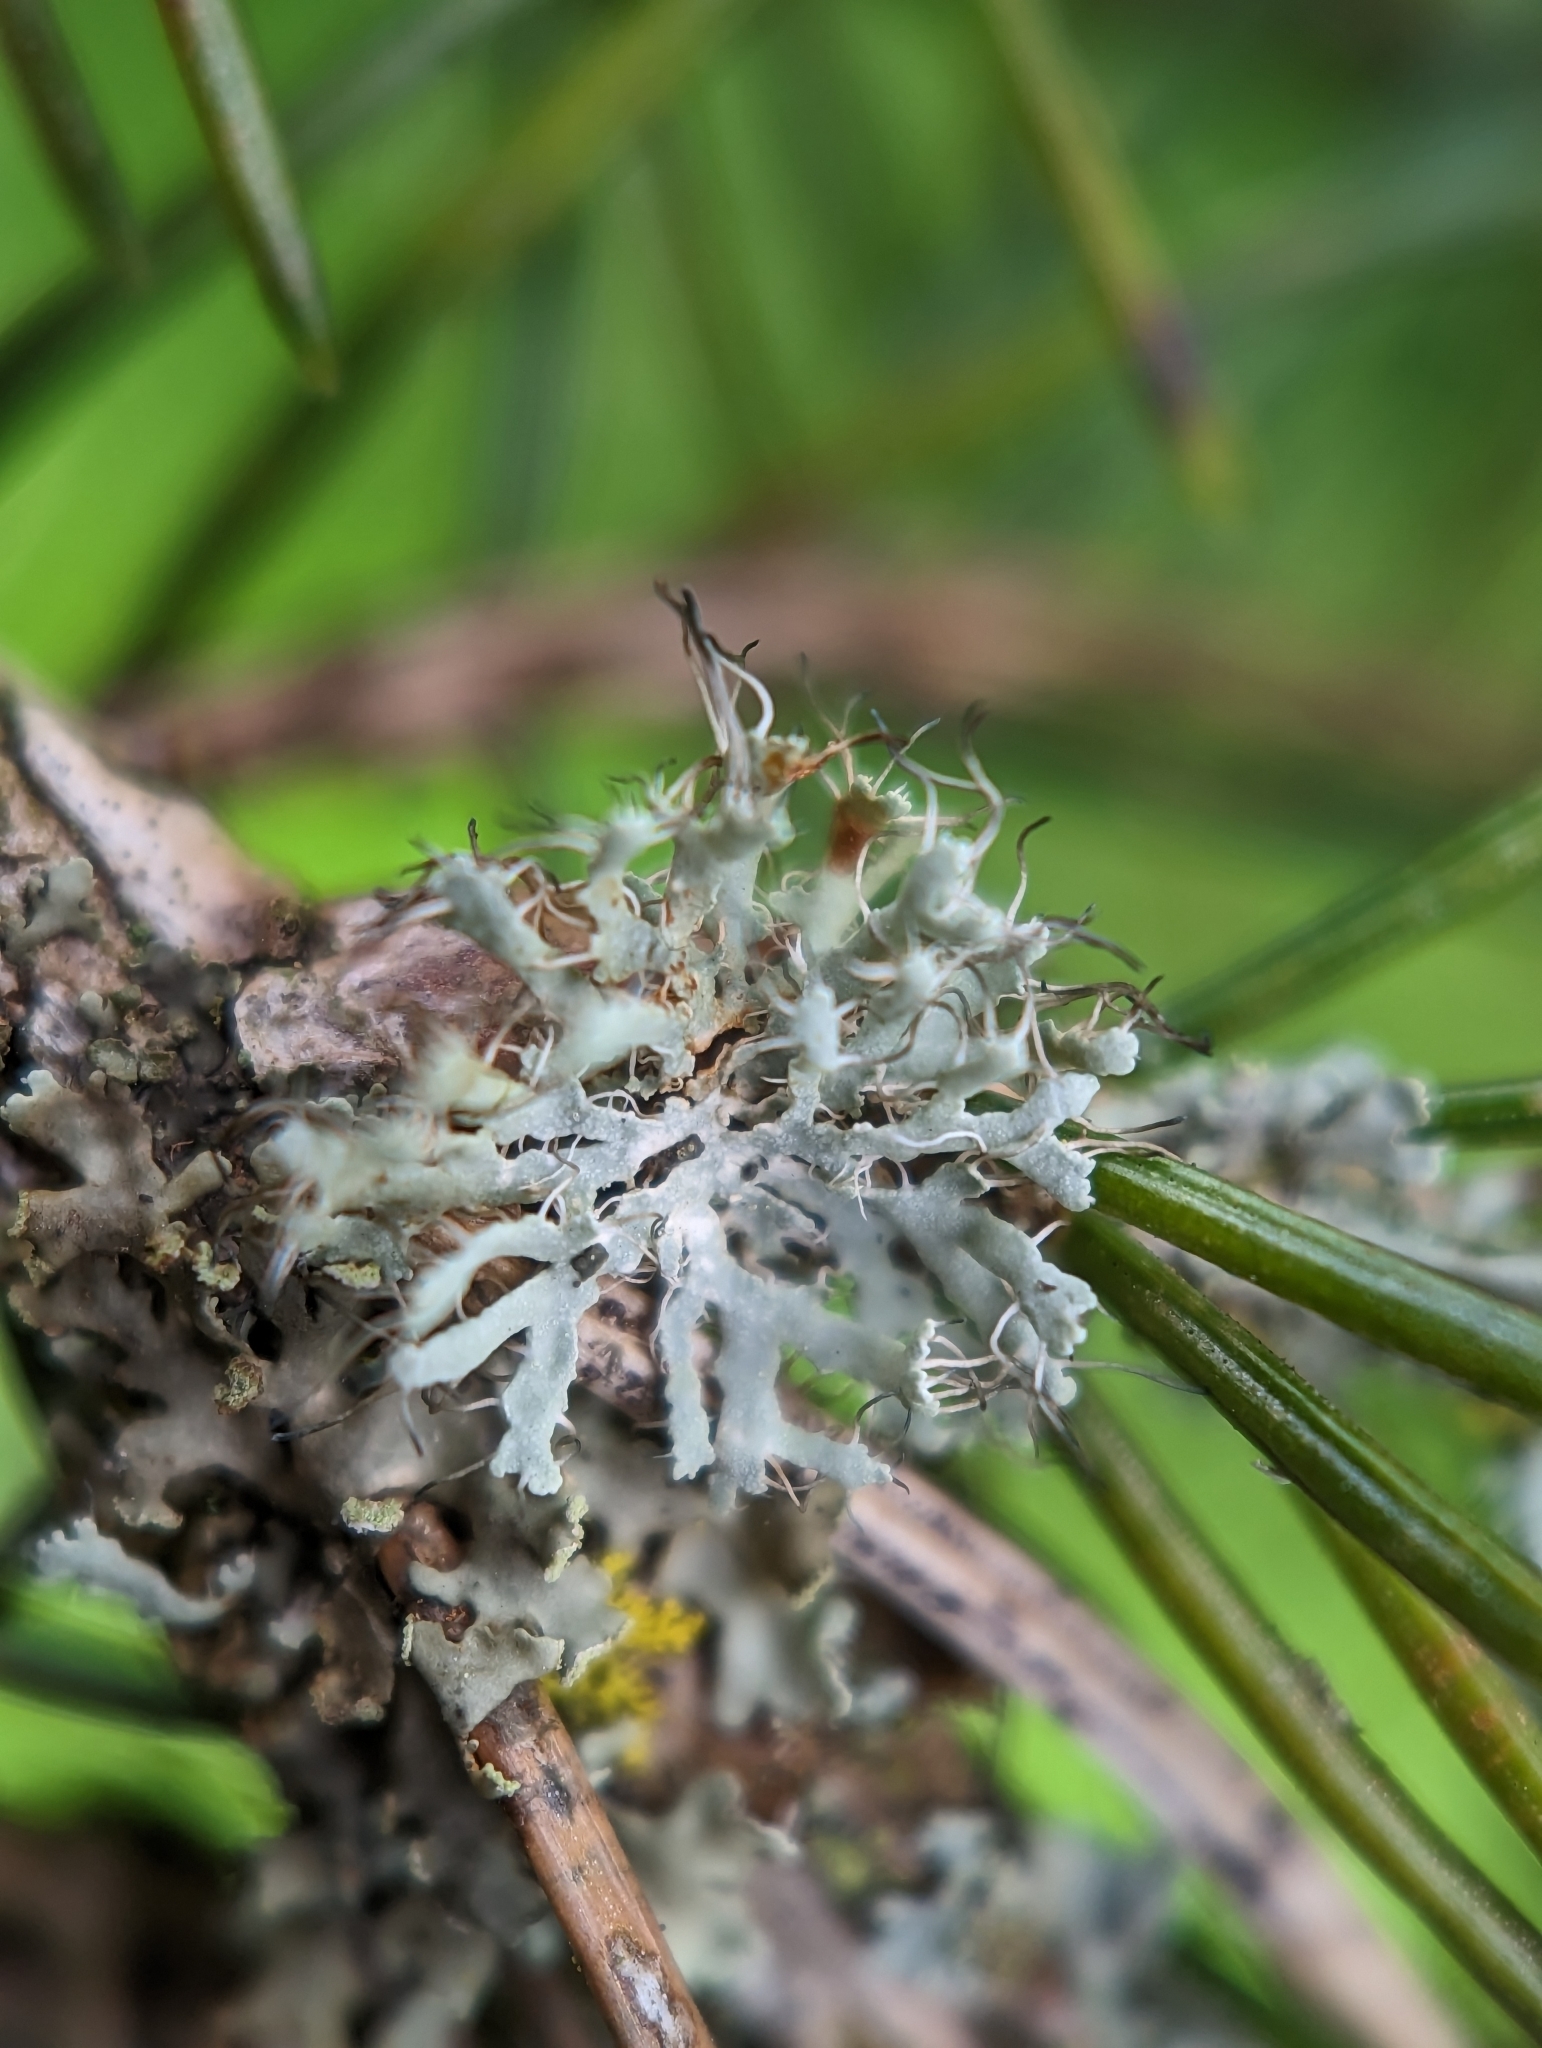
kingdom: Fungi
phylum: Ascomycota
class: Lecanoromycetes
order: Caliciales
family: Physciaceae
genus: Physcia
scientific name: Physcia adscendens
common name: Hooded rosette lichen
